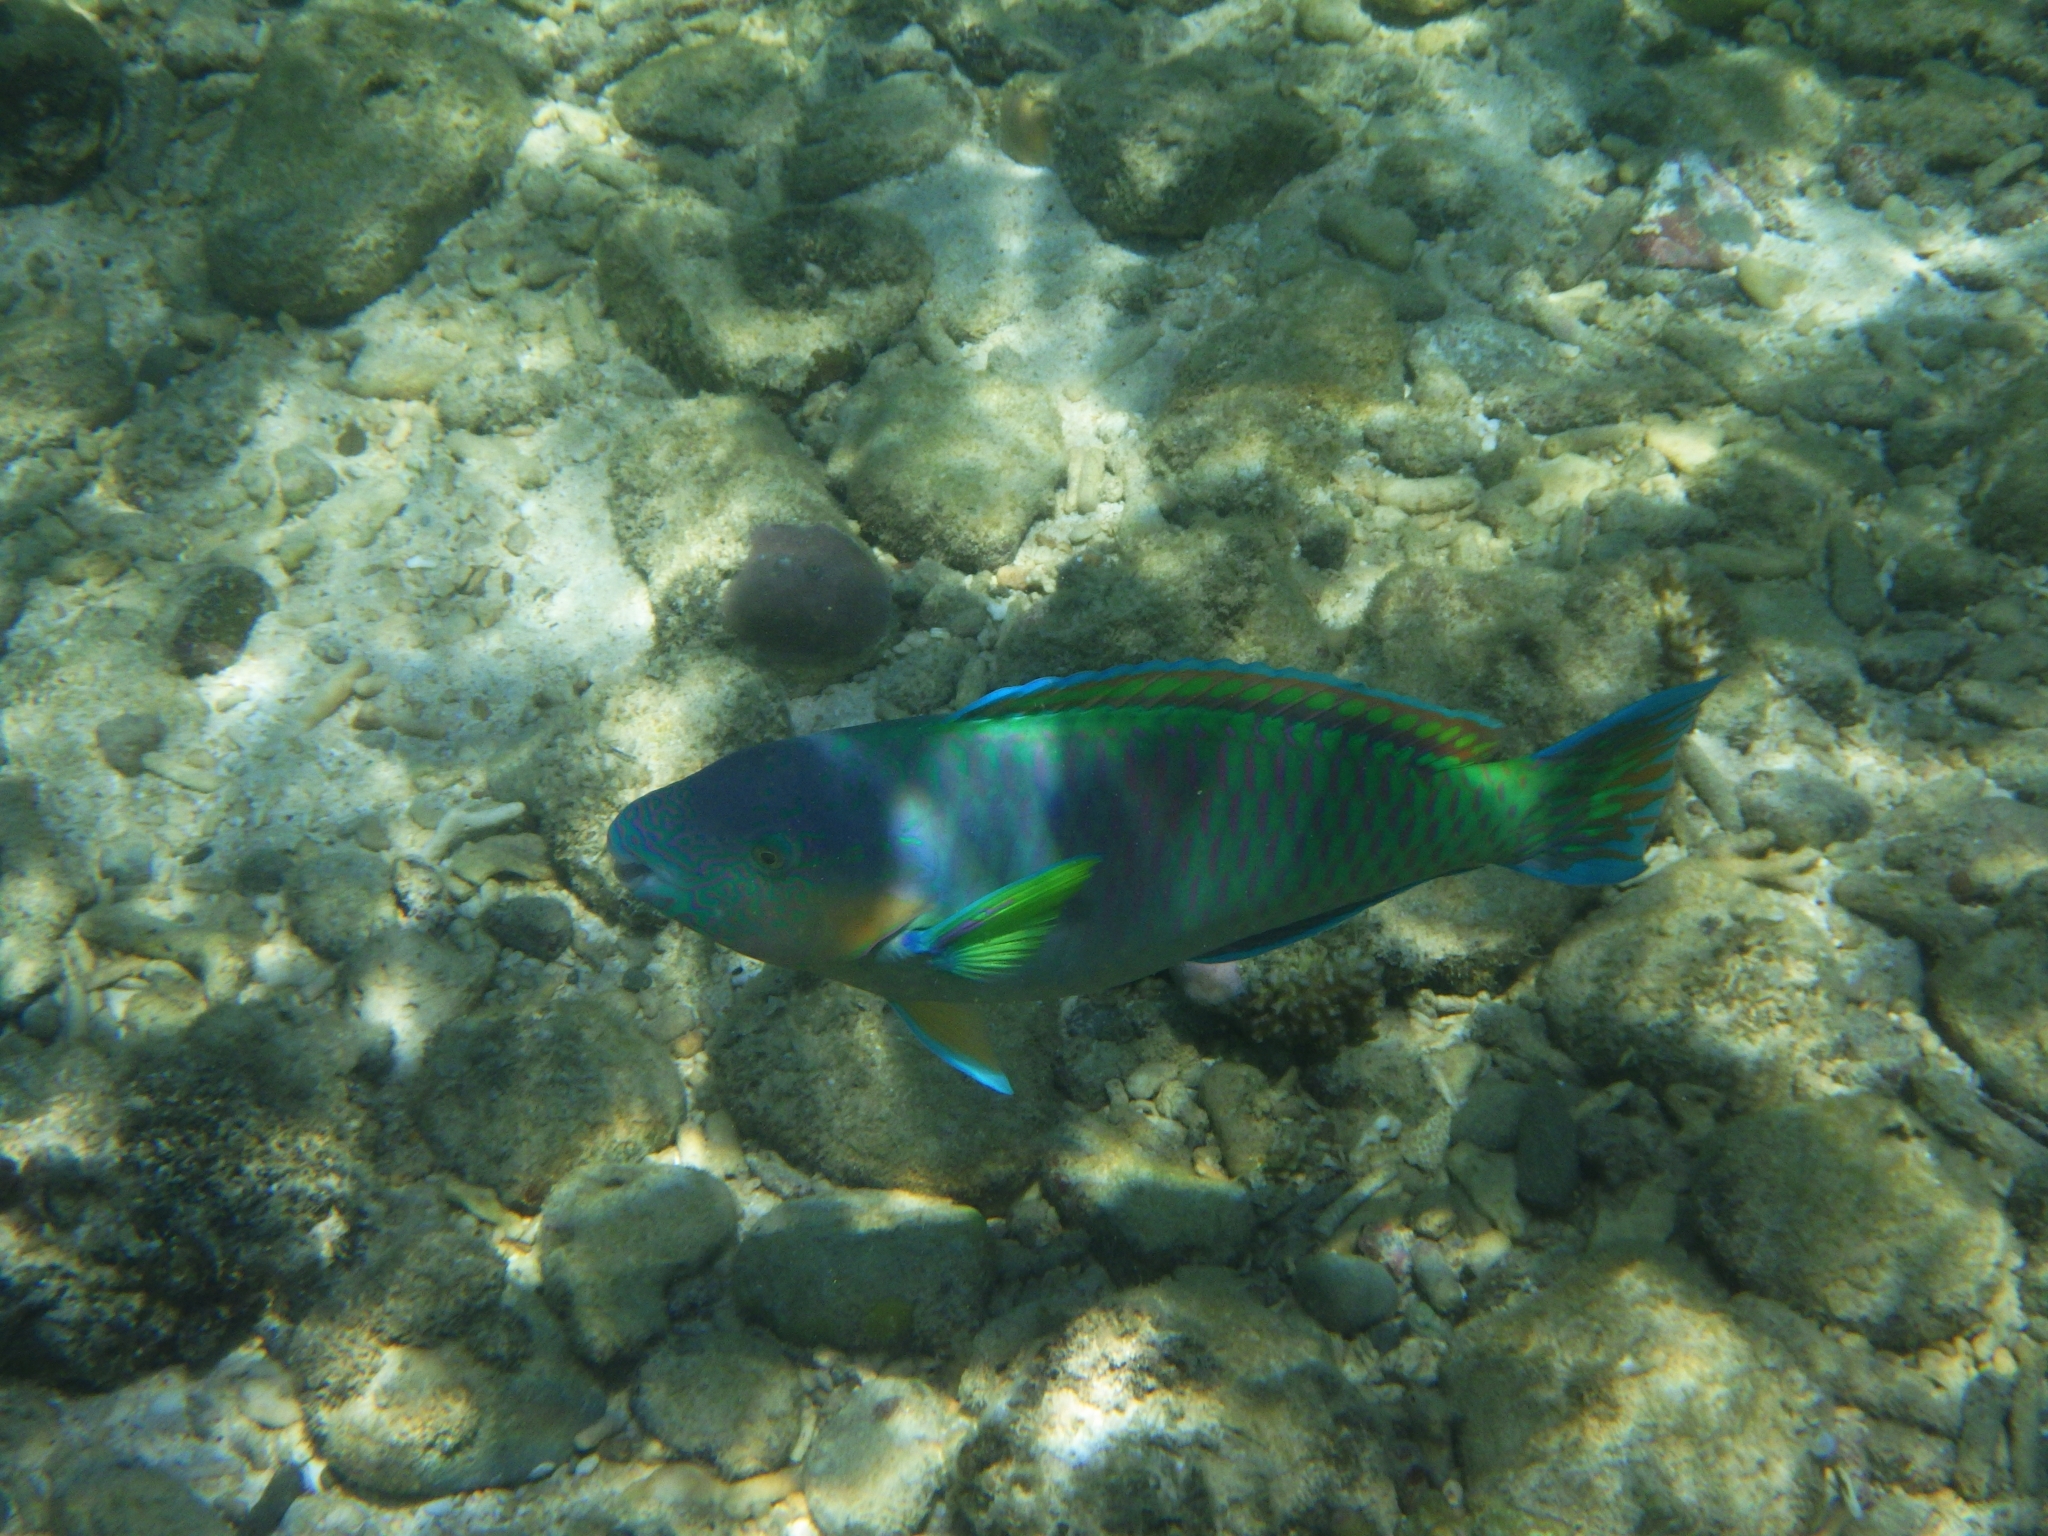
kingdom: Animalia
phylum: Chordata
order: Perciformes
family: Scaridae
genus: Scarus
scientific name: Scarus rivulatus
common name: Surf parrotfish
